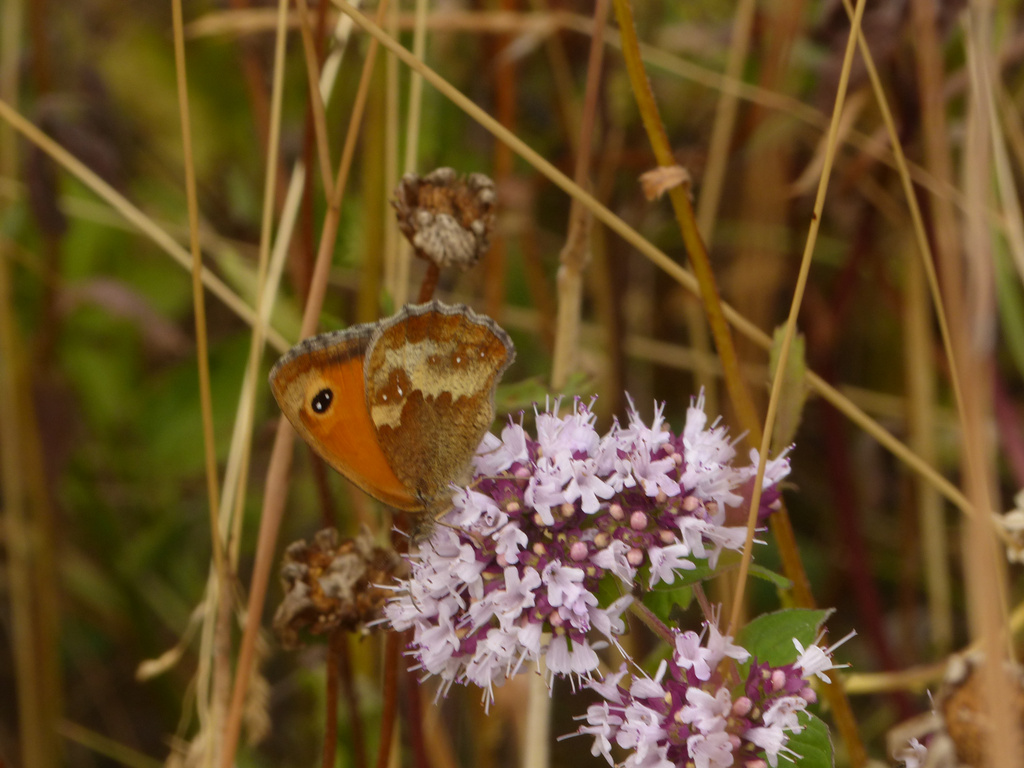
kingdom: Animalia
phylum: Arthropoda
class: Insecta
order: Lepidoptera
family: Nymphalidae
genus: Pyronia
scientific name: Pyronia tithonus
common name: Gatekeeper
